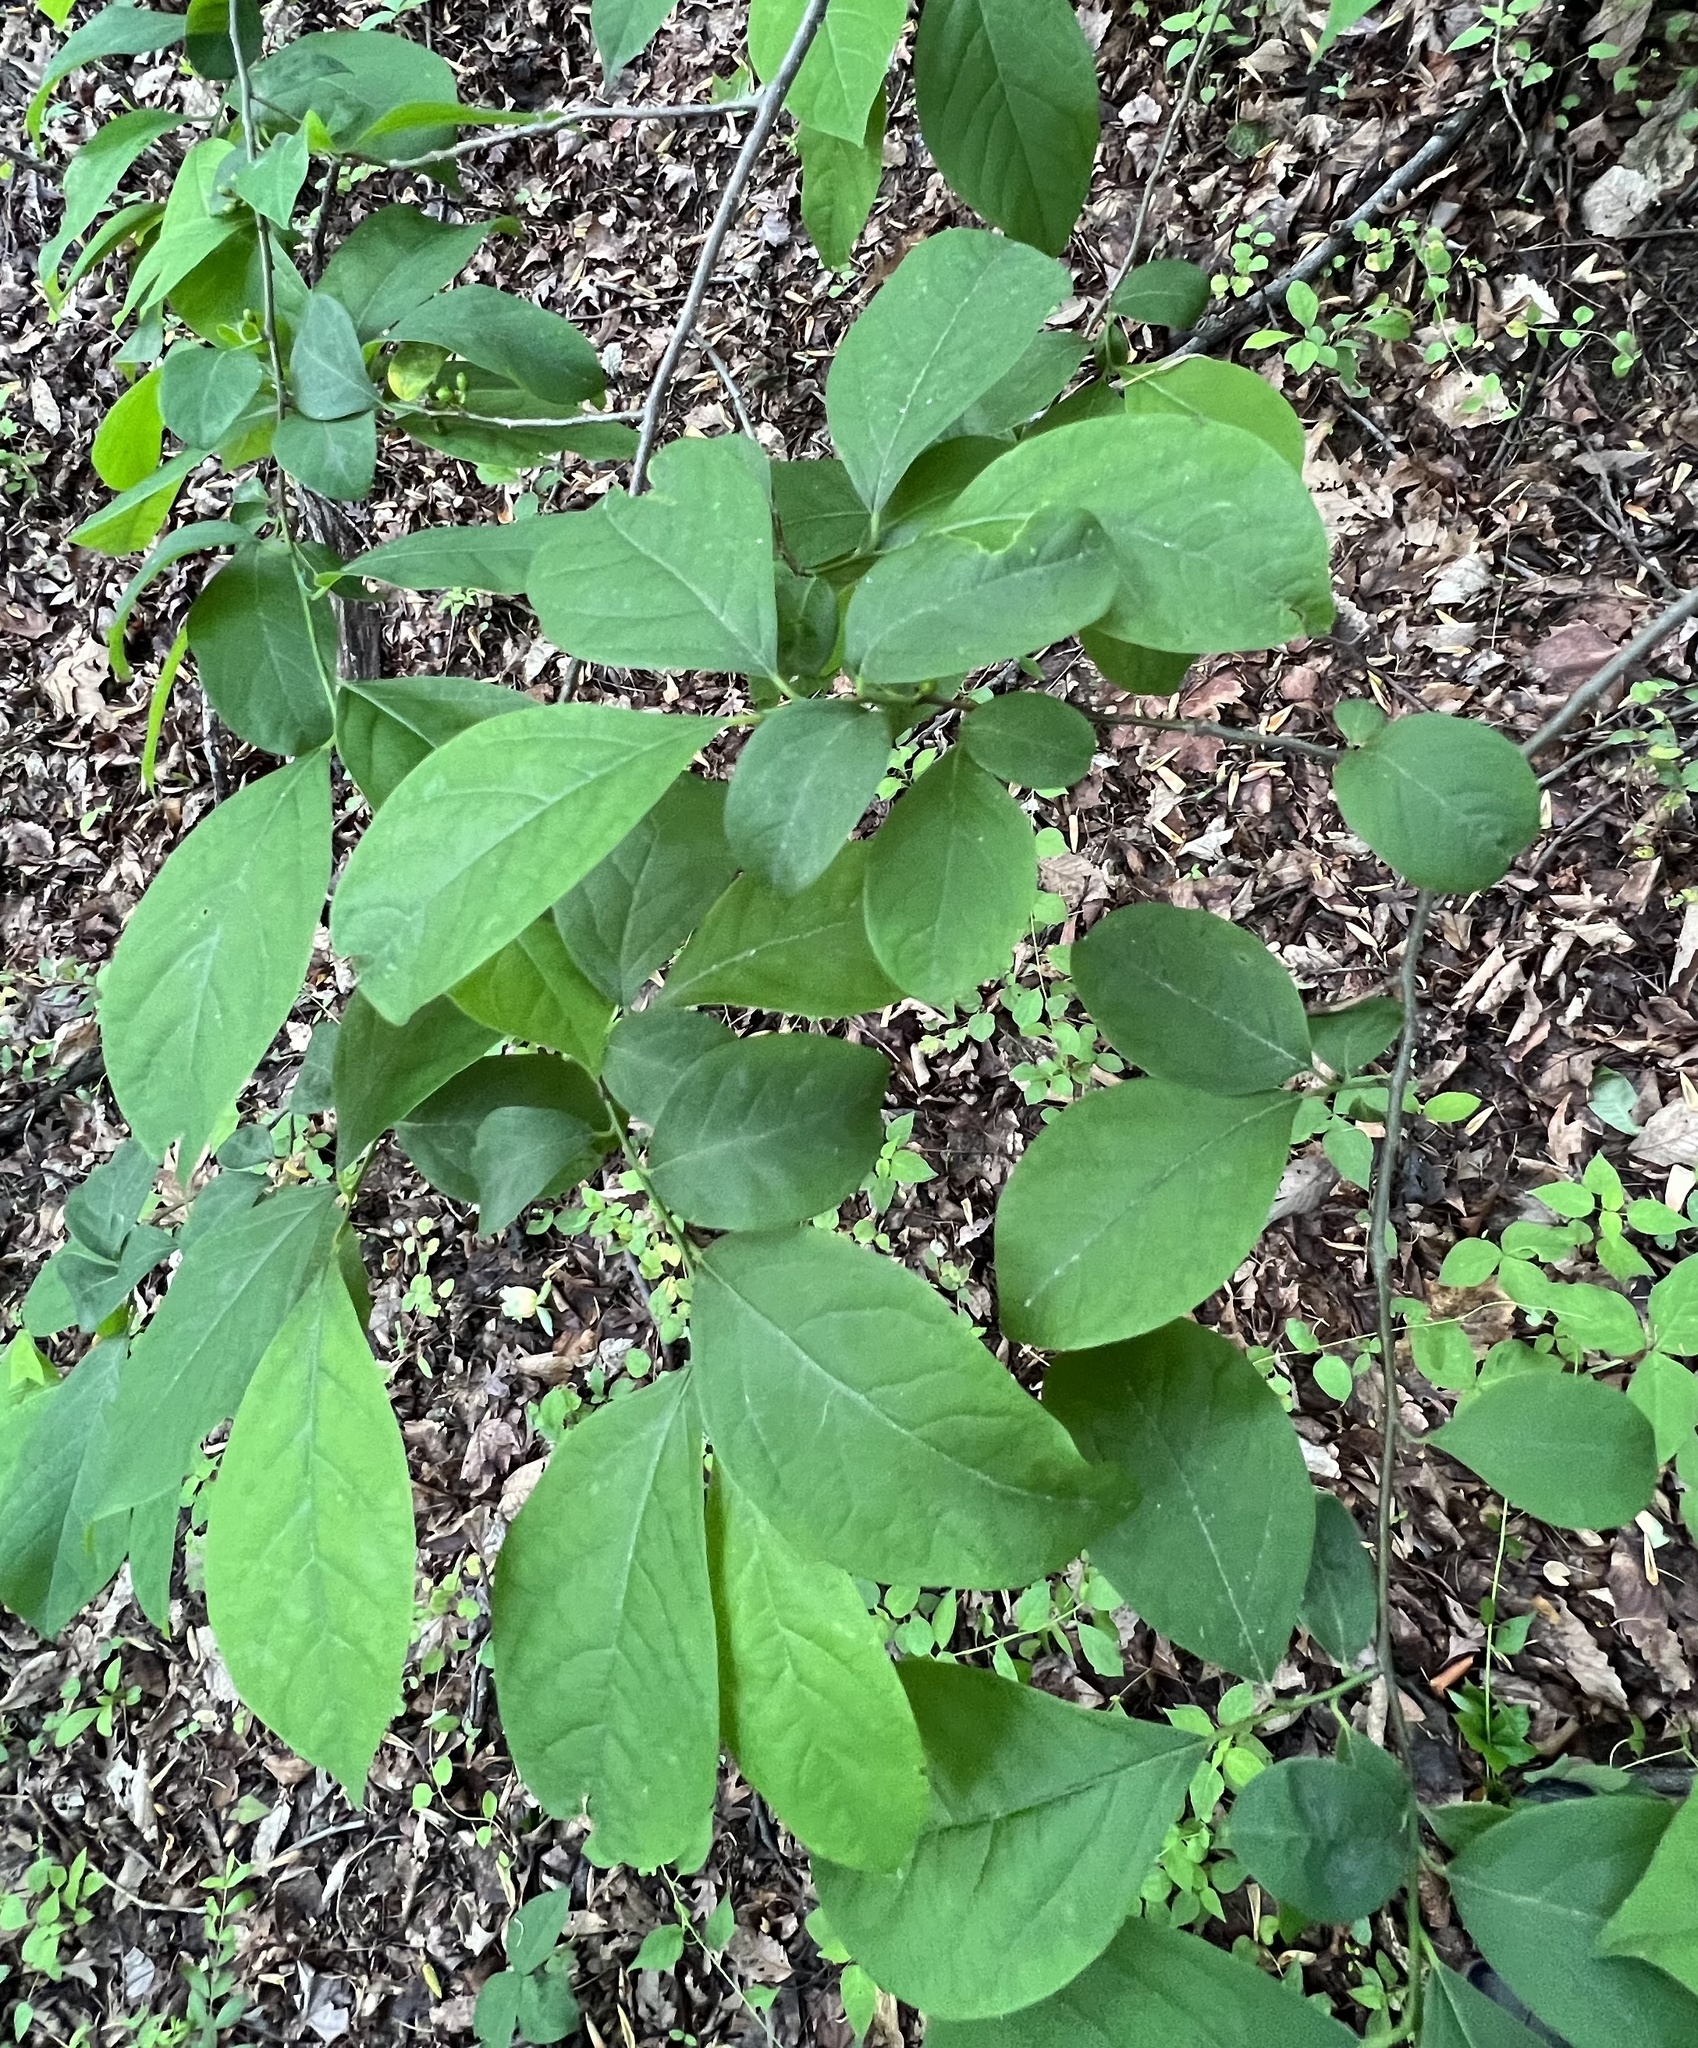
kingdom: Plantae
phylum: Tracheophyta
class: Magnoliopsida
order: Laurales
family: Lauraceae
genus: Lindera
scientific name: Lindera benzoin
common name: Spicebush
